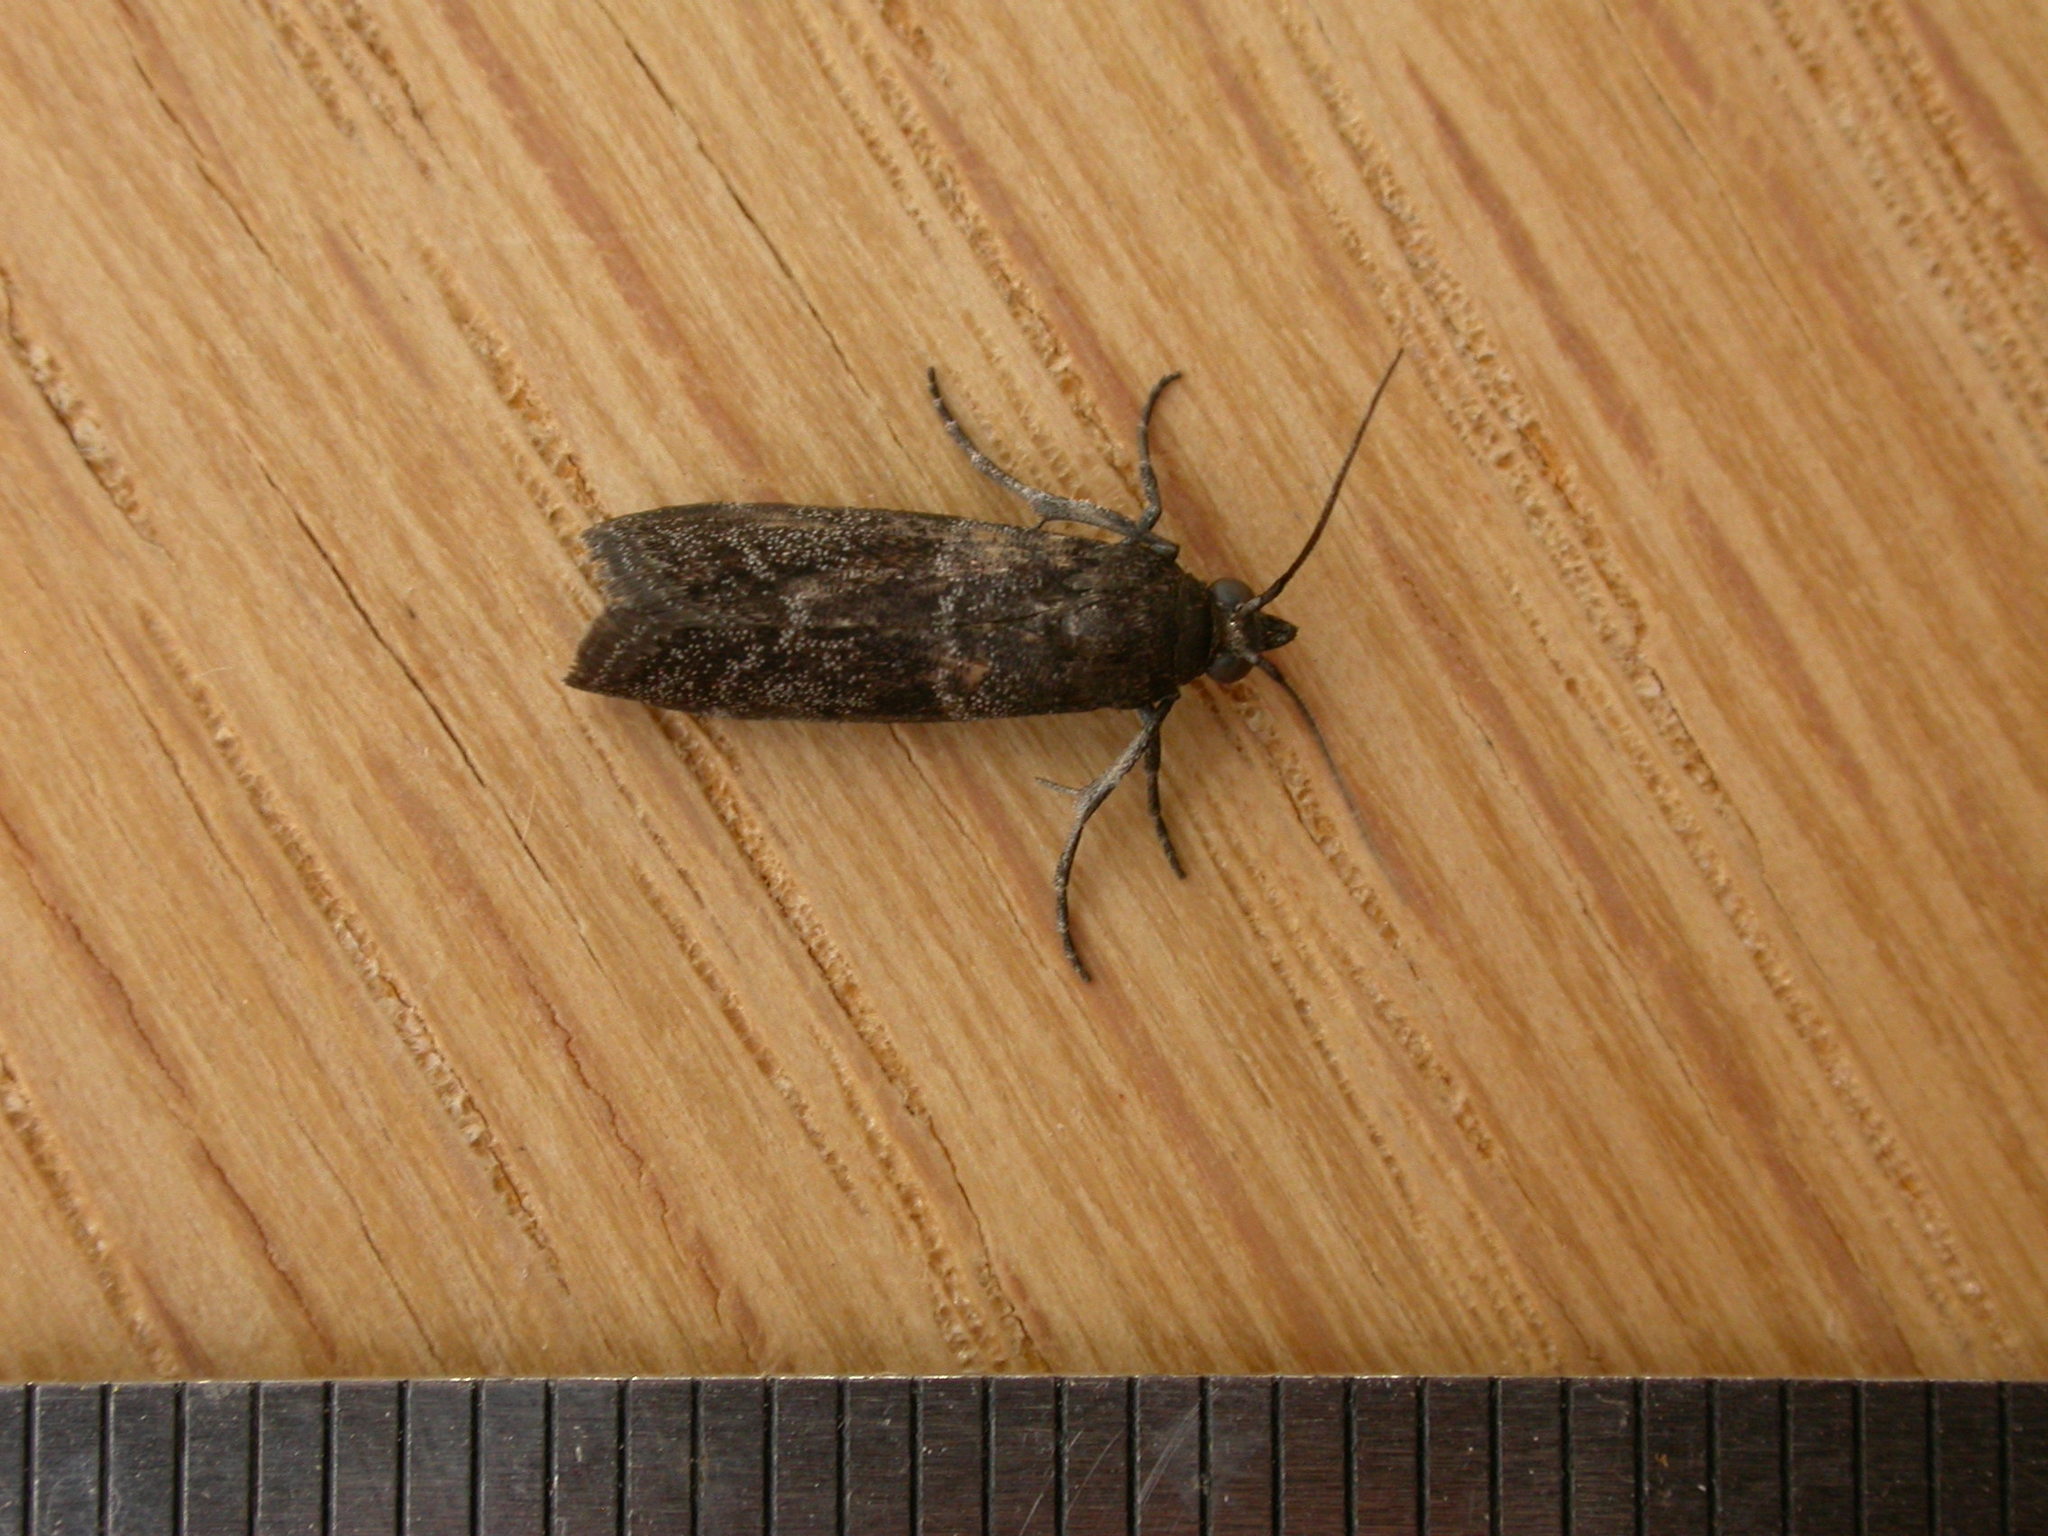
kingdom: Animalia
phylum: Arthropoda
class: Insecta
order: Lepidoptera
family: Pyralidae
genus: Lasiosticha
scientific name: Lasiosticha opimella
